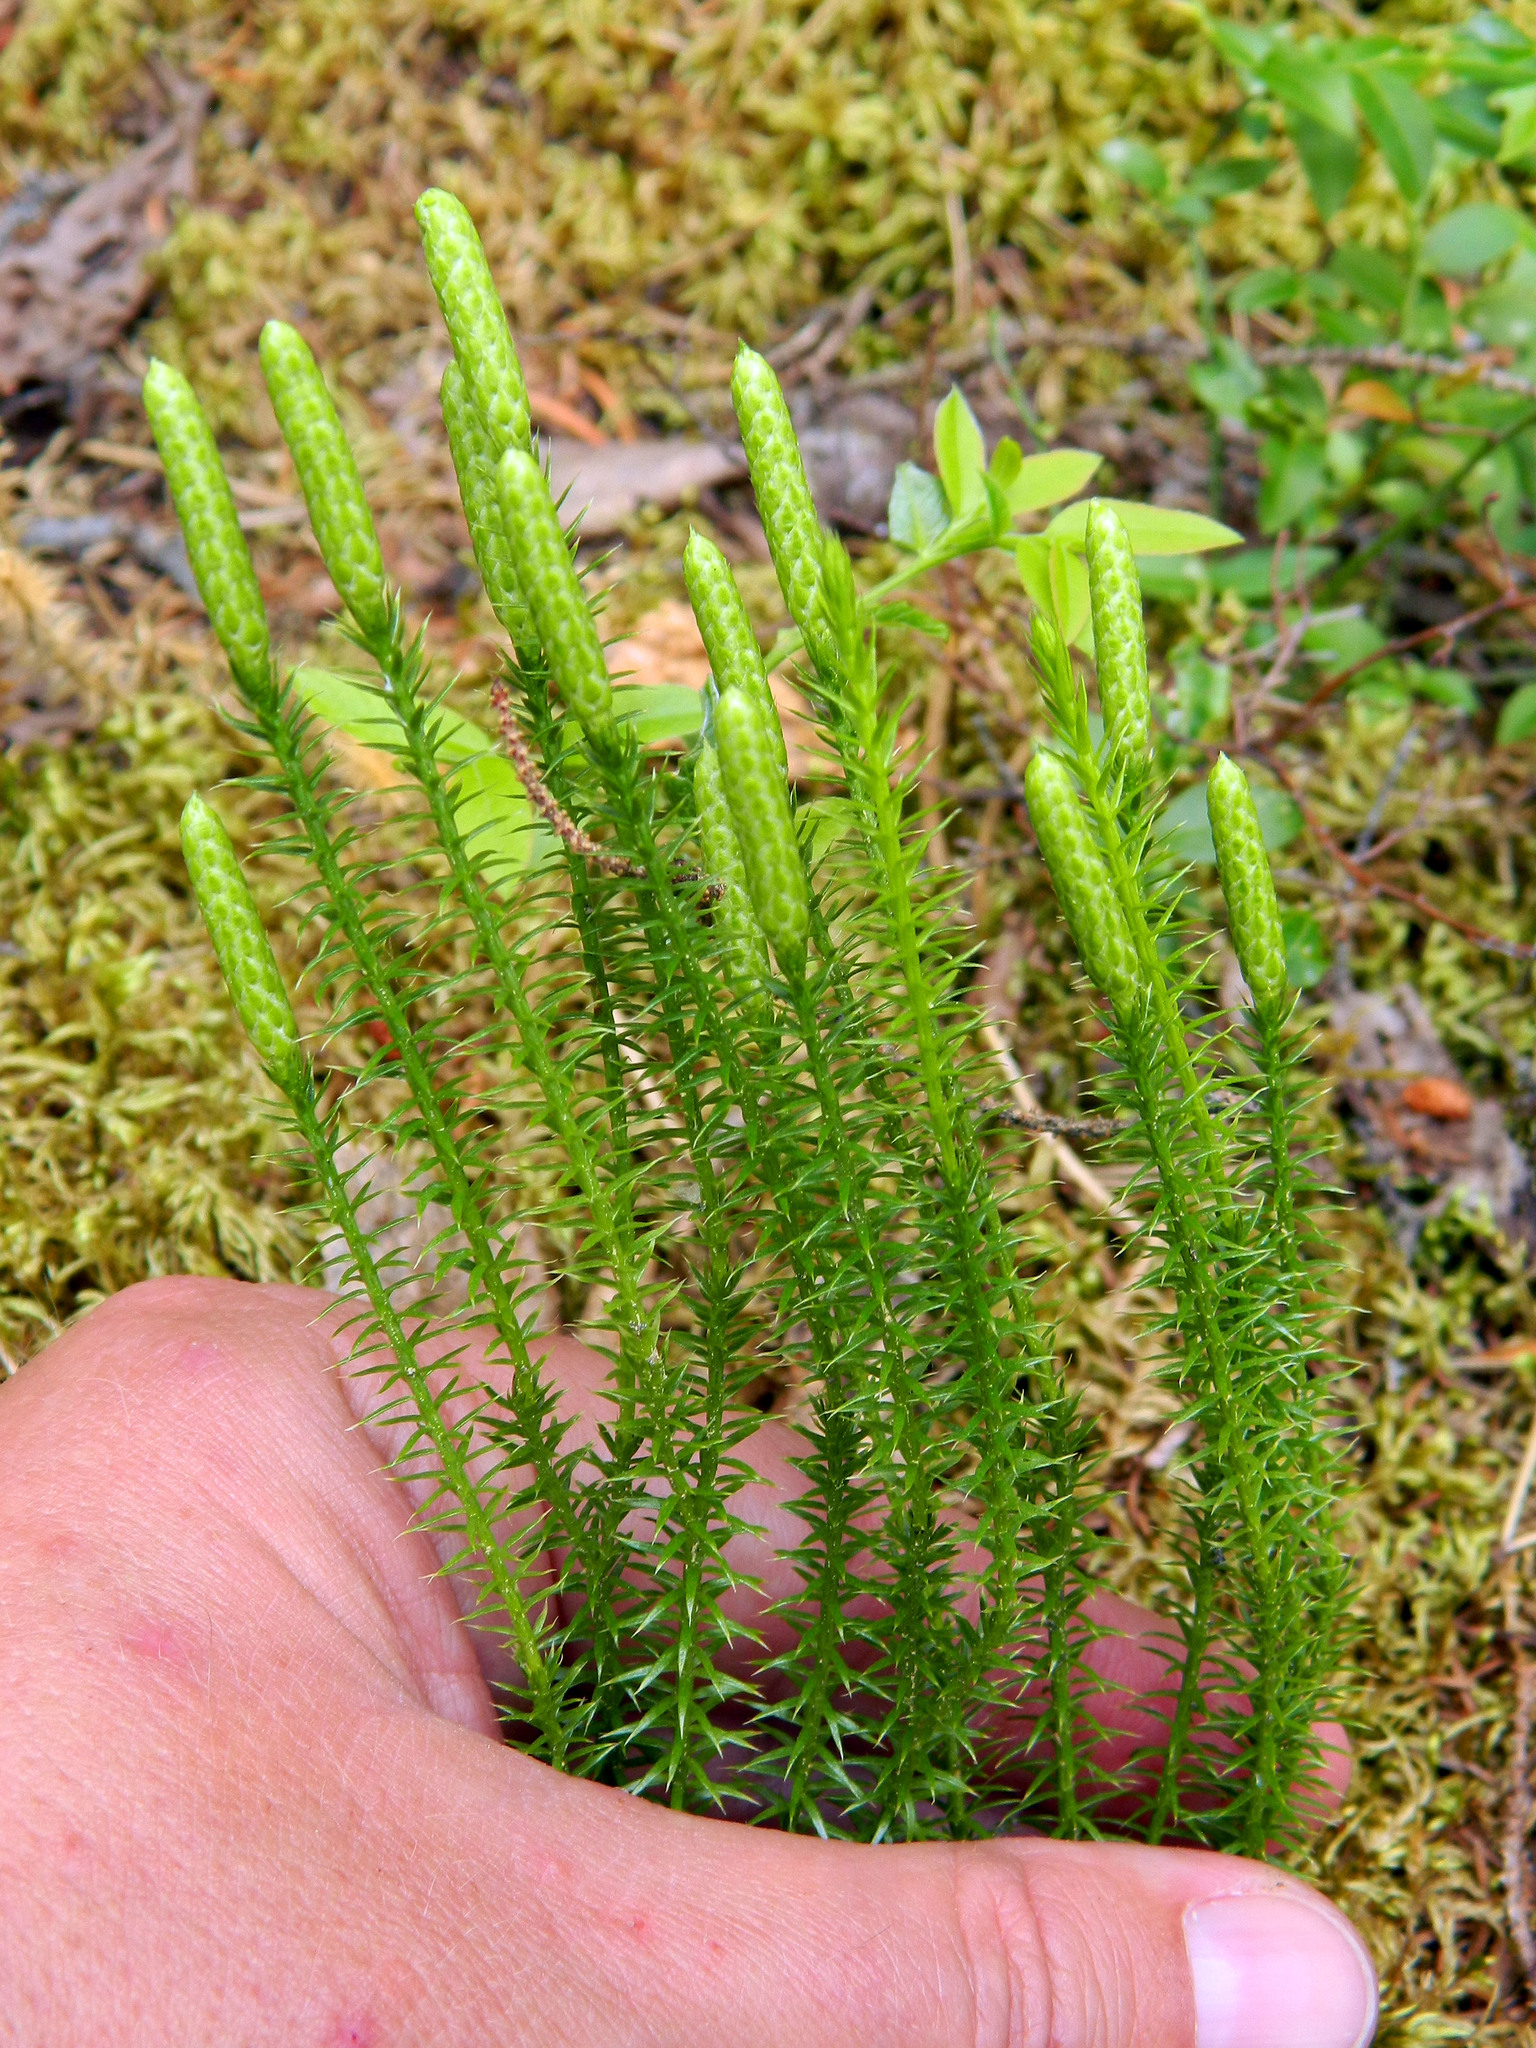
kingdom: Plantae
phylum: Tracheophyta
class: Lycopodiopsida
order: Lycopodiales
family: Lycopodiaceae
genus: Spinulum
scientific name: Spinulum annotinum
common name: Interrupted club-moss
